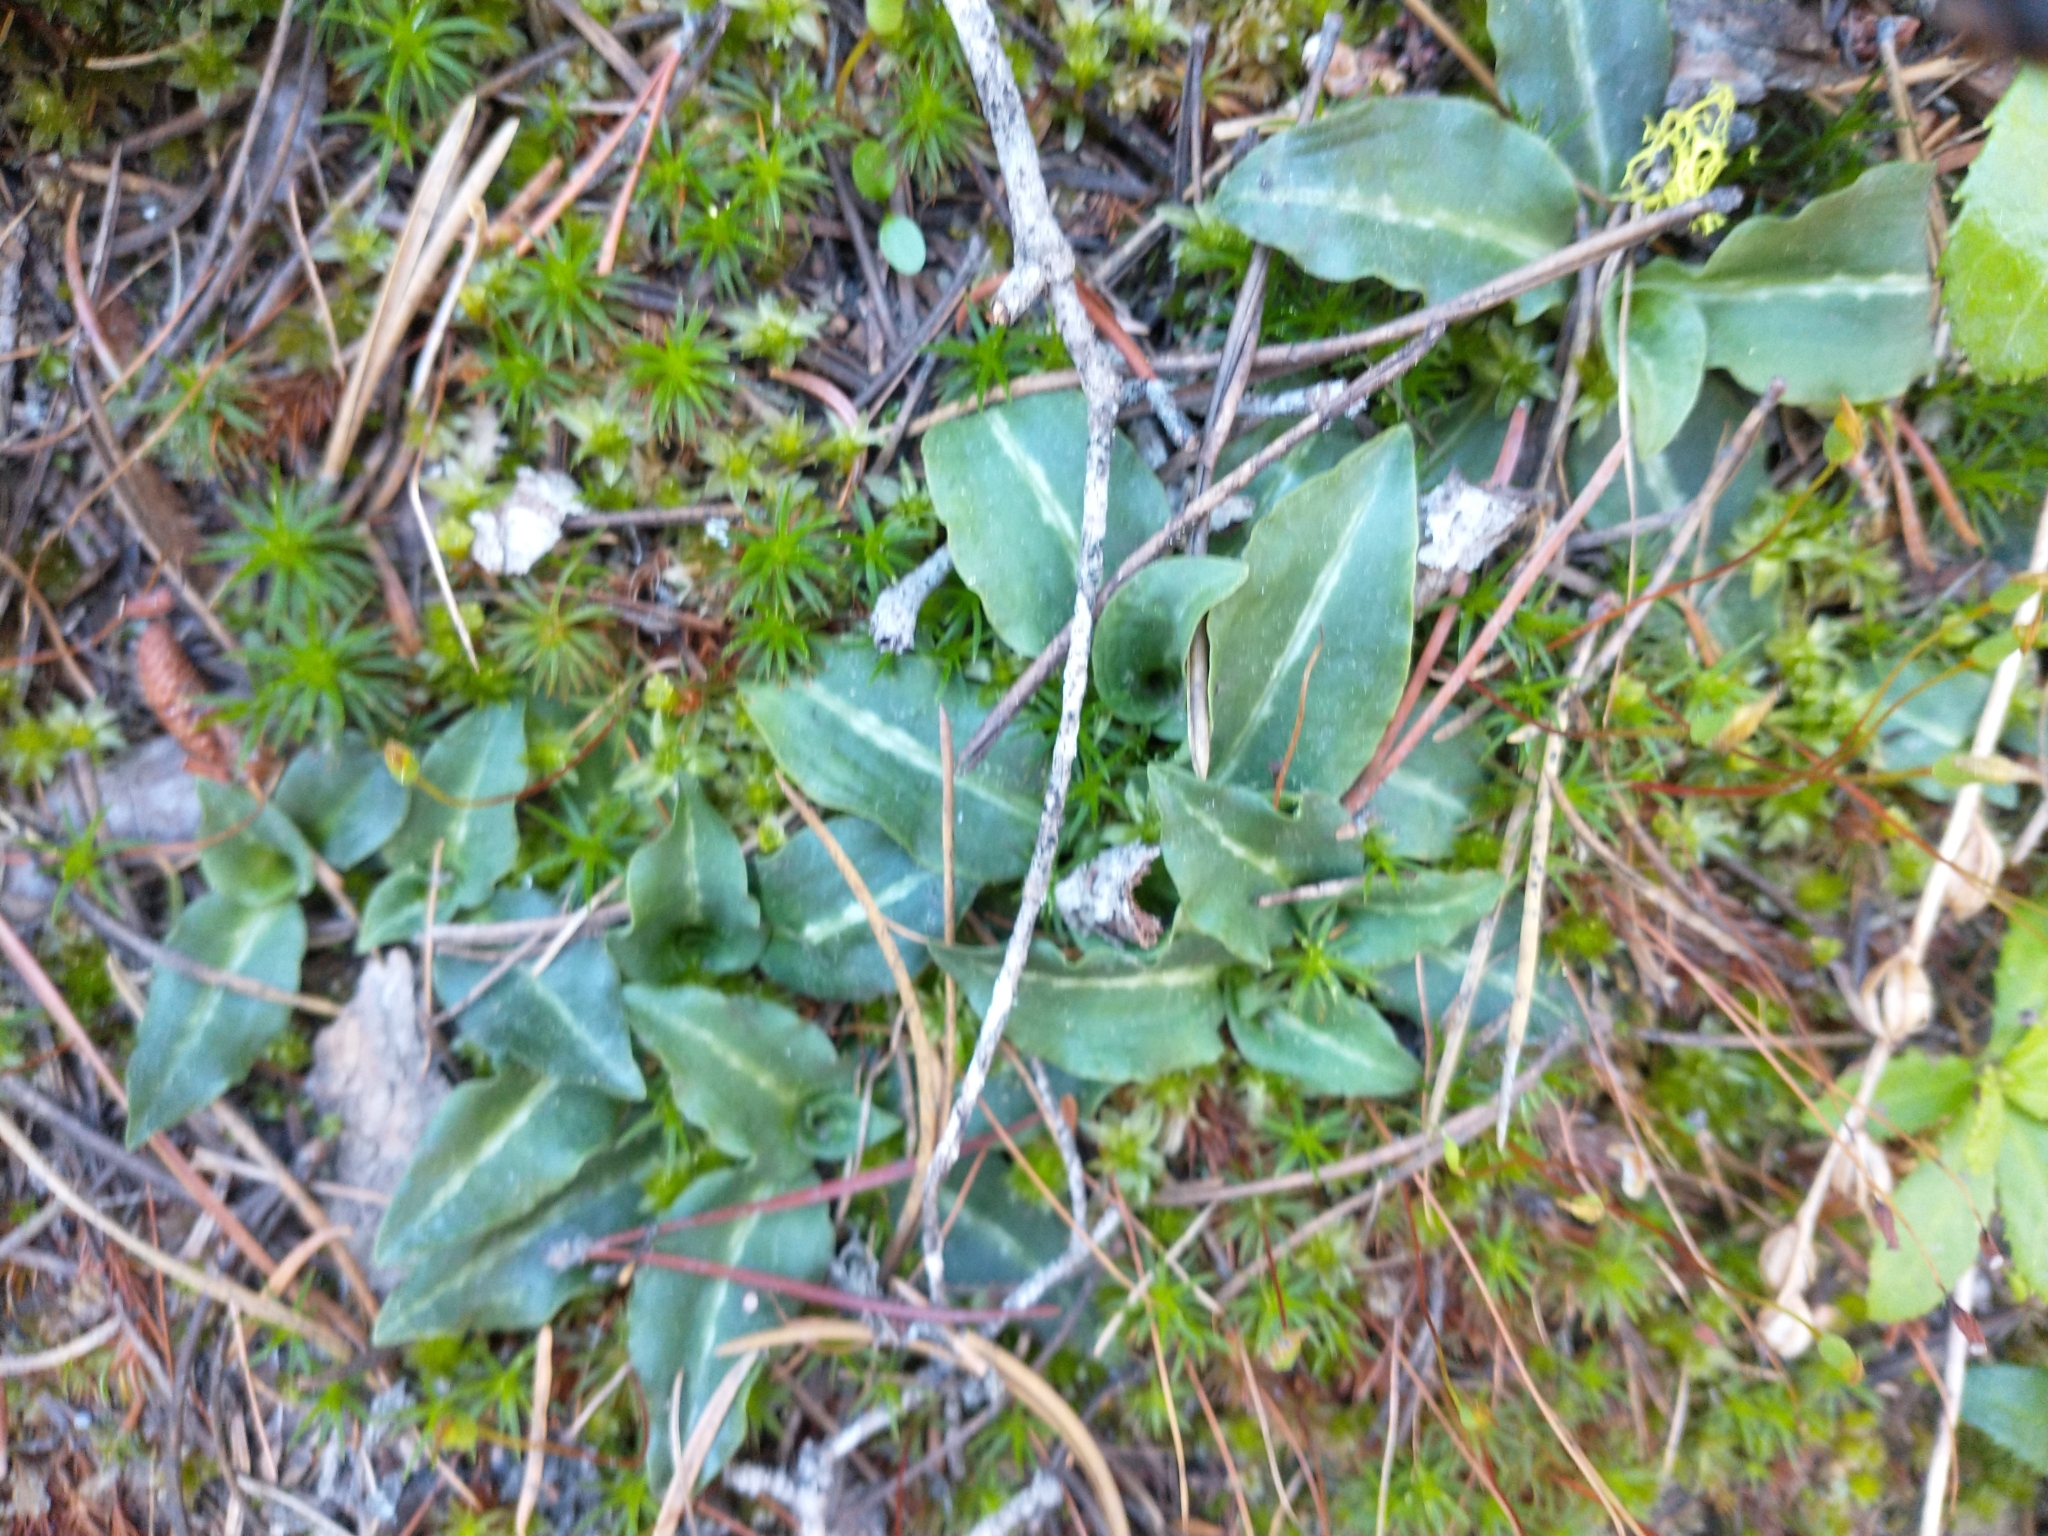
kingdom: Plantae
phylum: Tracheophyta
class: Liliopsida
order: Asparagales
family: Orchidaceae
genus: Goodyera
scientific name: Goodyera oblongifolia
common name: Giant rattlesnake-plantain
